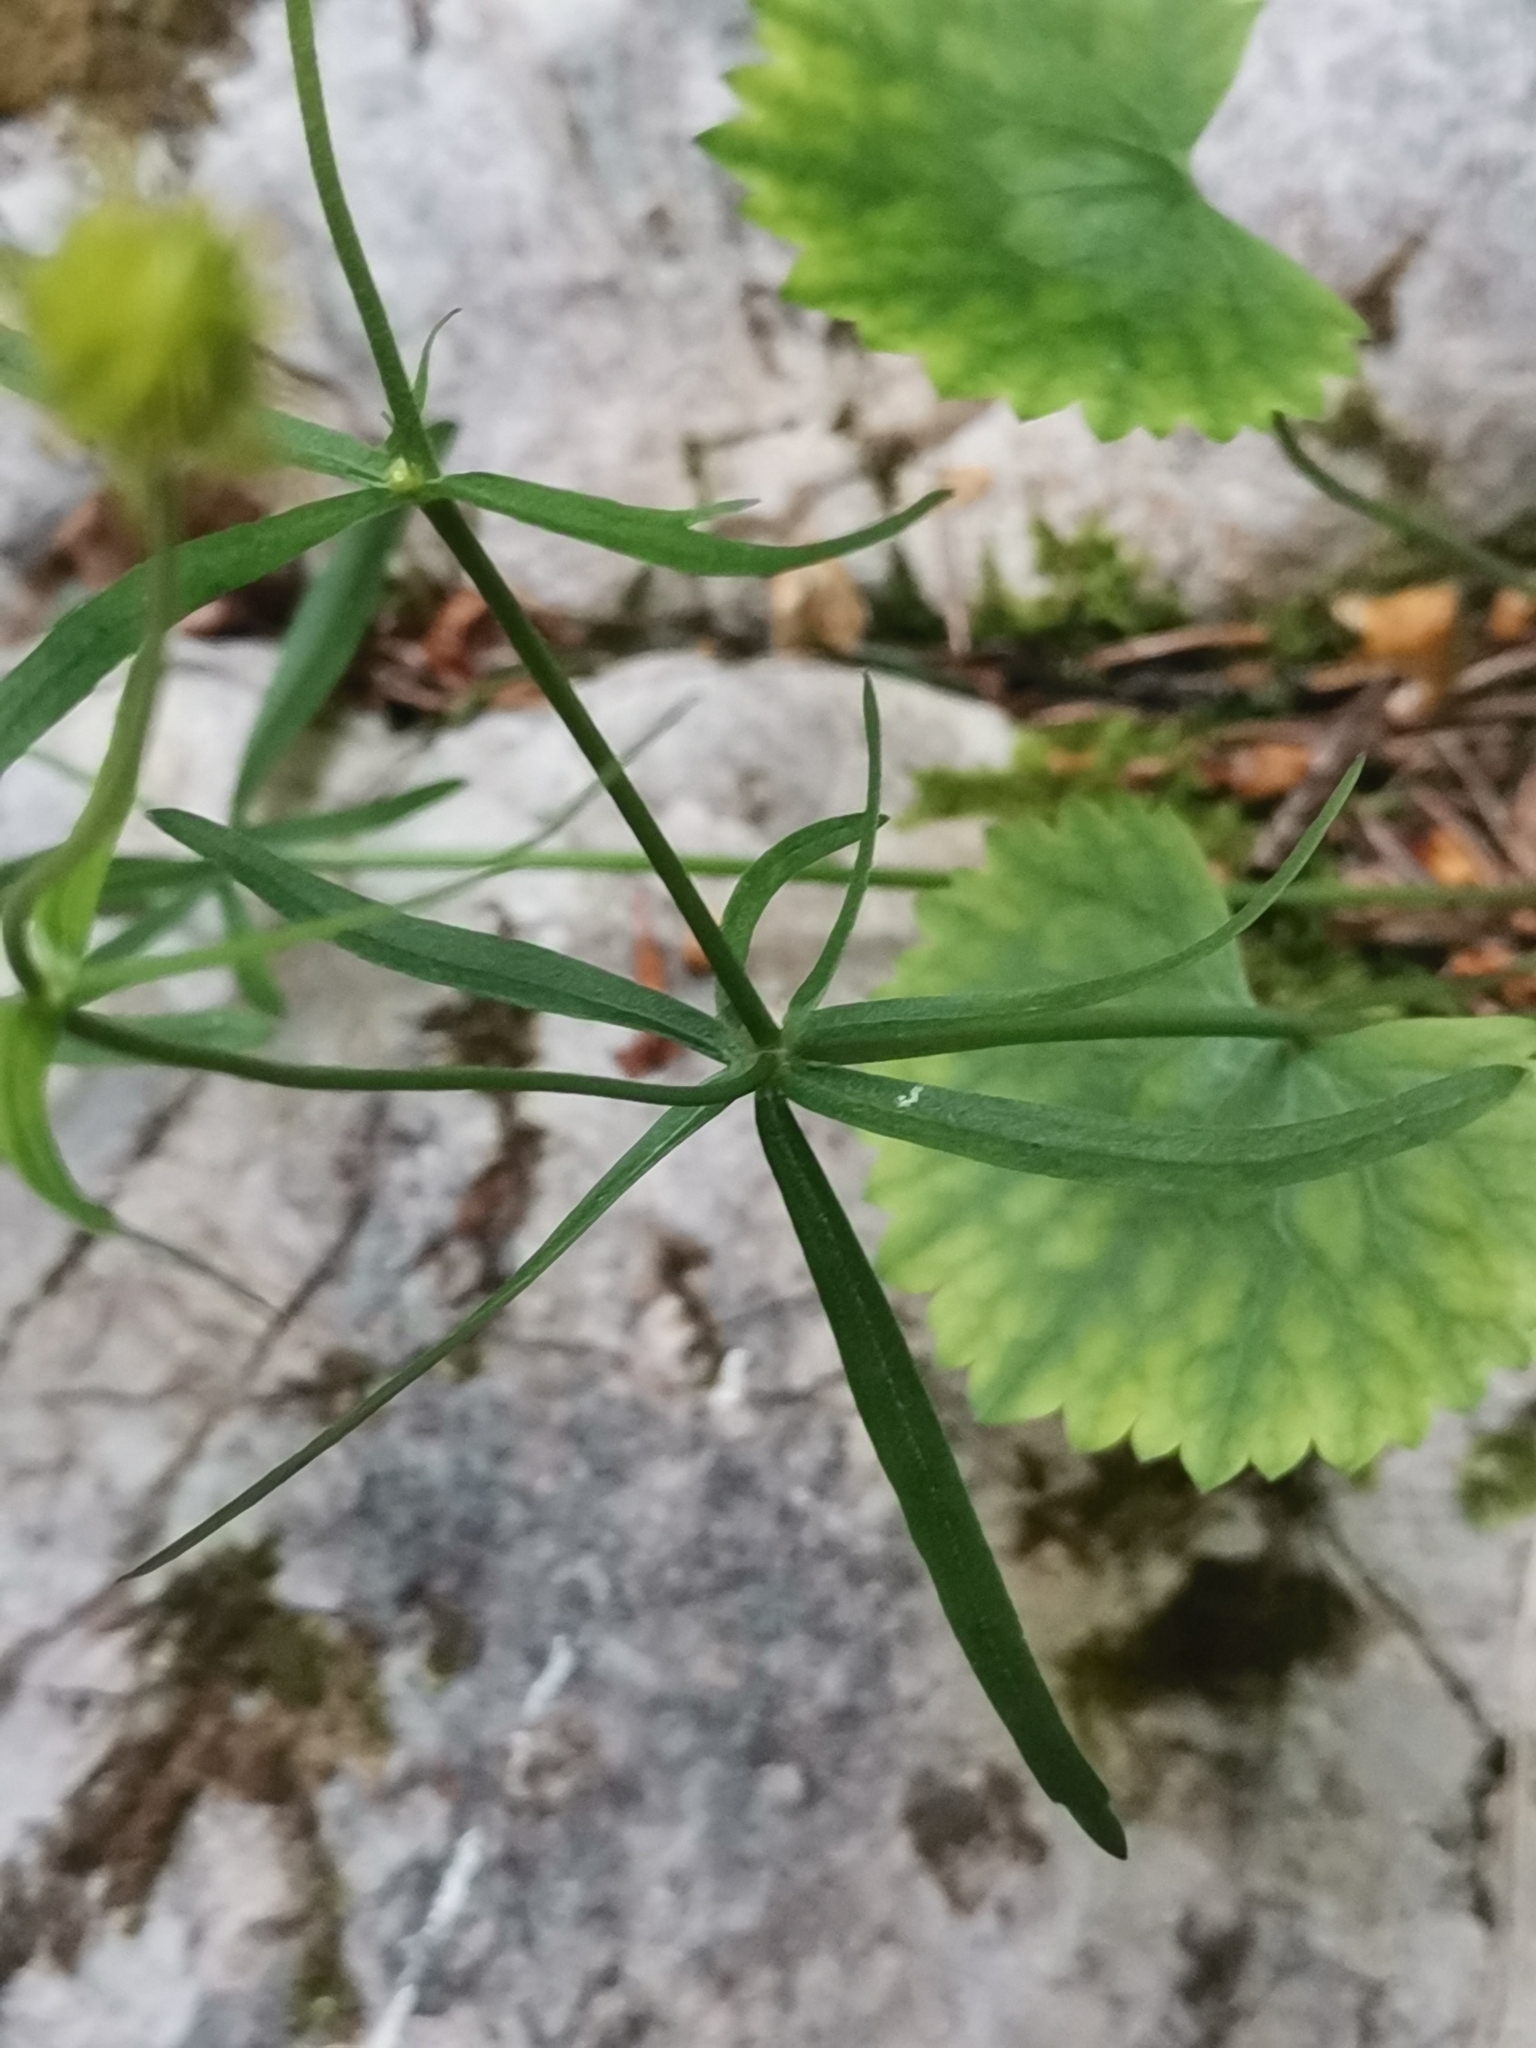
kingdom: Plantae
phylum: Tracheophyta
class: Magnoliopsida
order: Ranunculales
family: Ranunculaceae
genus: Ranunculus
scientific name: Ranunculus auricomus
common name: Goldilocks buttercup
